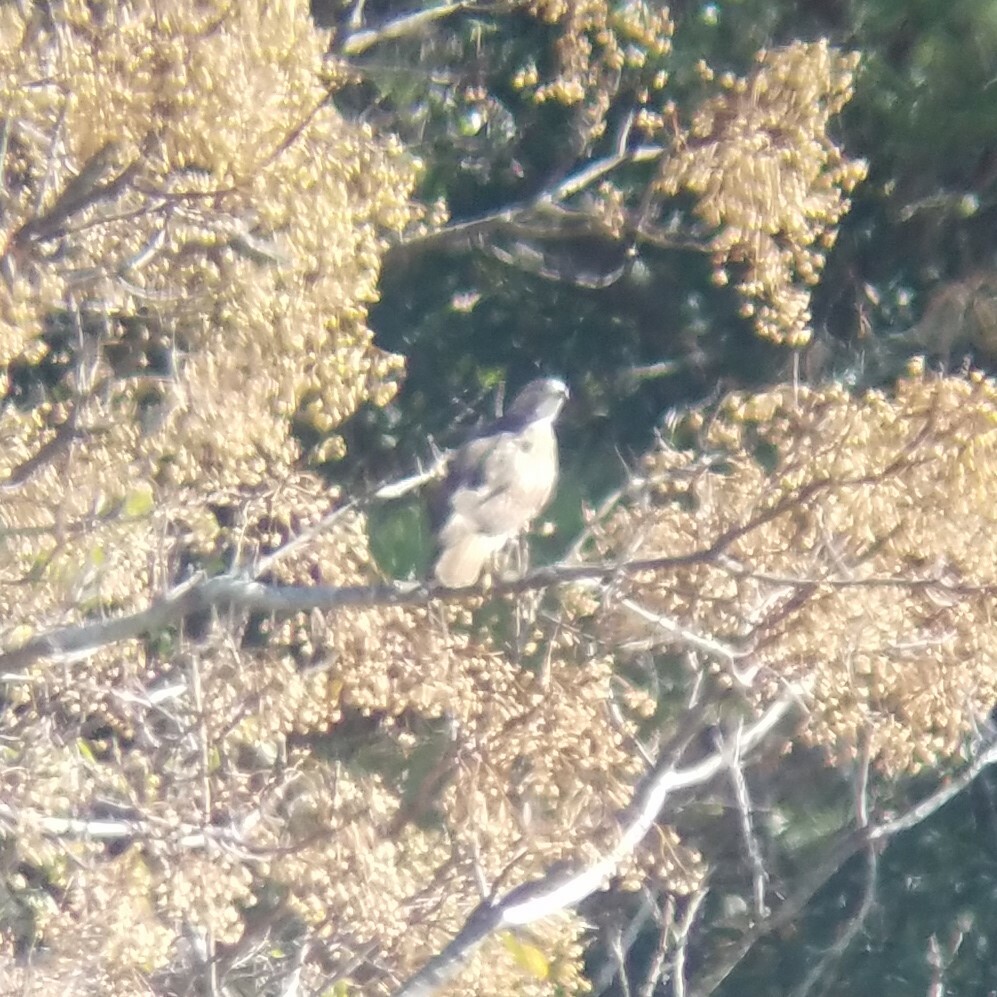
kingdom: Animalia
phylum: Chordata
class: Aves
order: Accipitriformes
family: Accipitridae
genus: Buteo
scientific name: Buteo jamaicensis
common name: Red-tailed hawk
